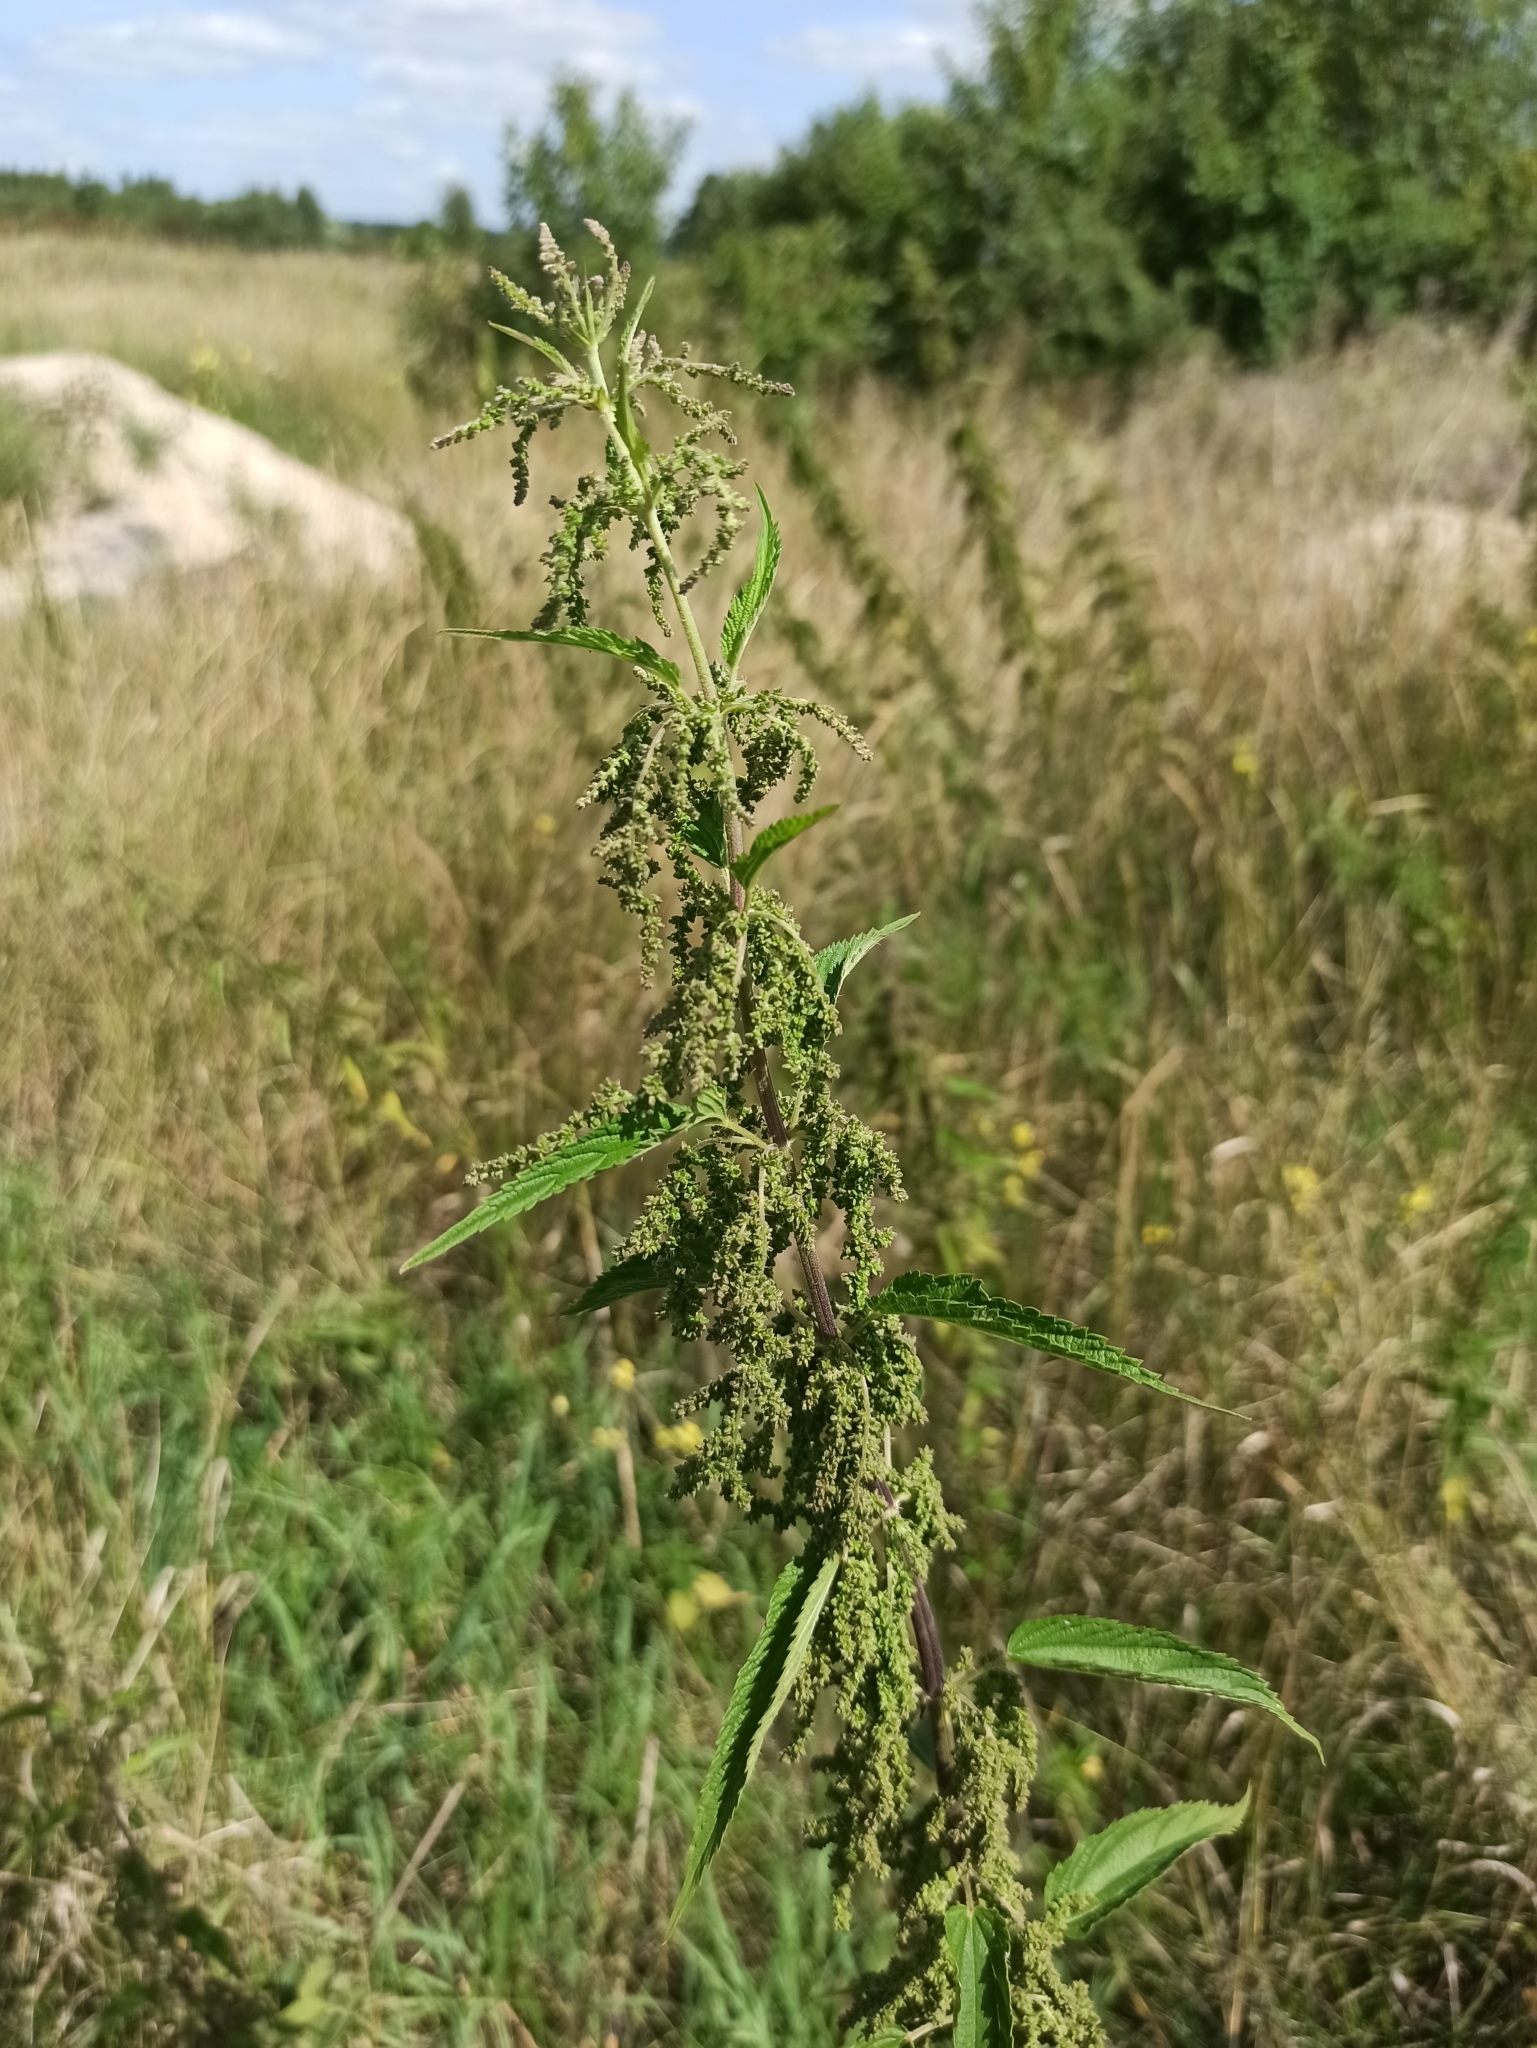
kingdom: Plantae
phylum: Tracheophyta
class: Magnoliopsida
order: Rosales
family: Urticaceae
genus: Urtica
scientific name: Urtica dioica
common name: Common nettle
